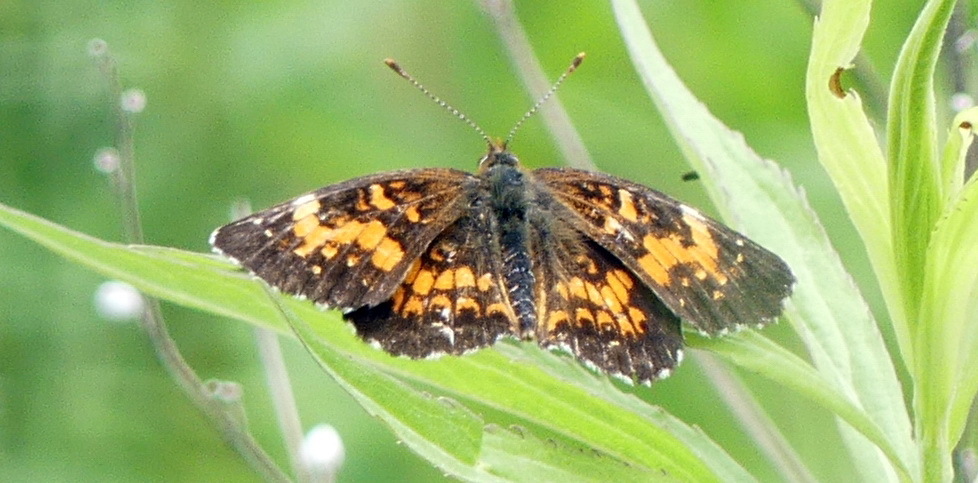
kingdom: Animalia
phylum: Arthropoda
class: Insecta
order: Lepidoptera
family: Nymphalidae
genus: Chlosyne
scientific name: Chlosyne harrisii
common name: Harris's checkerspot
